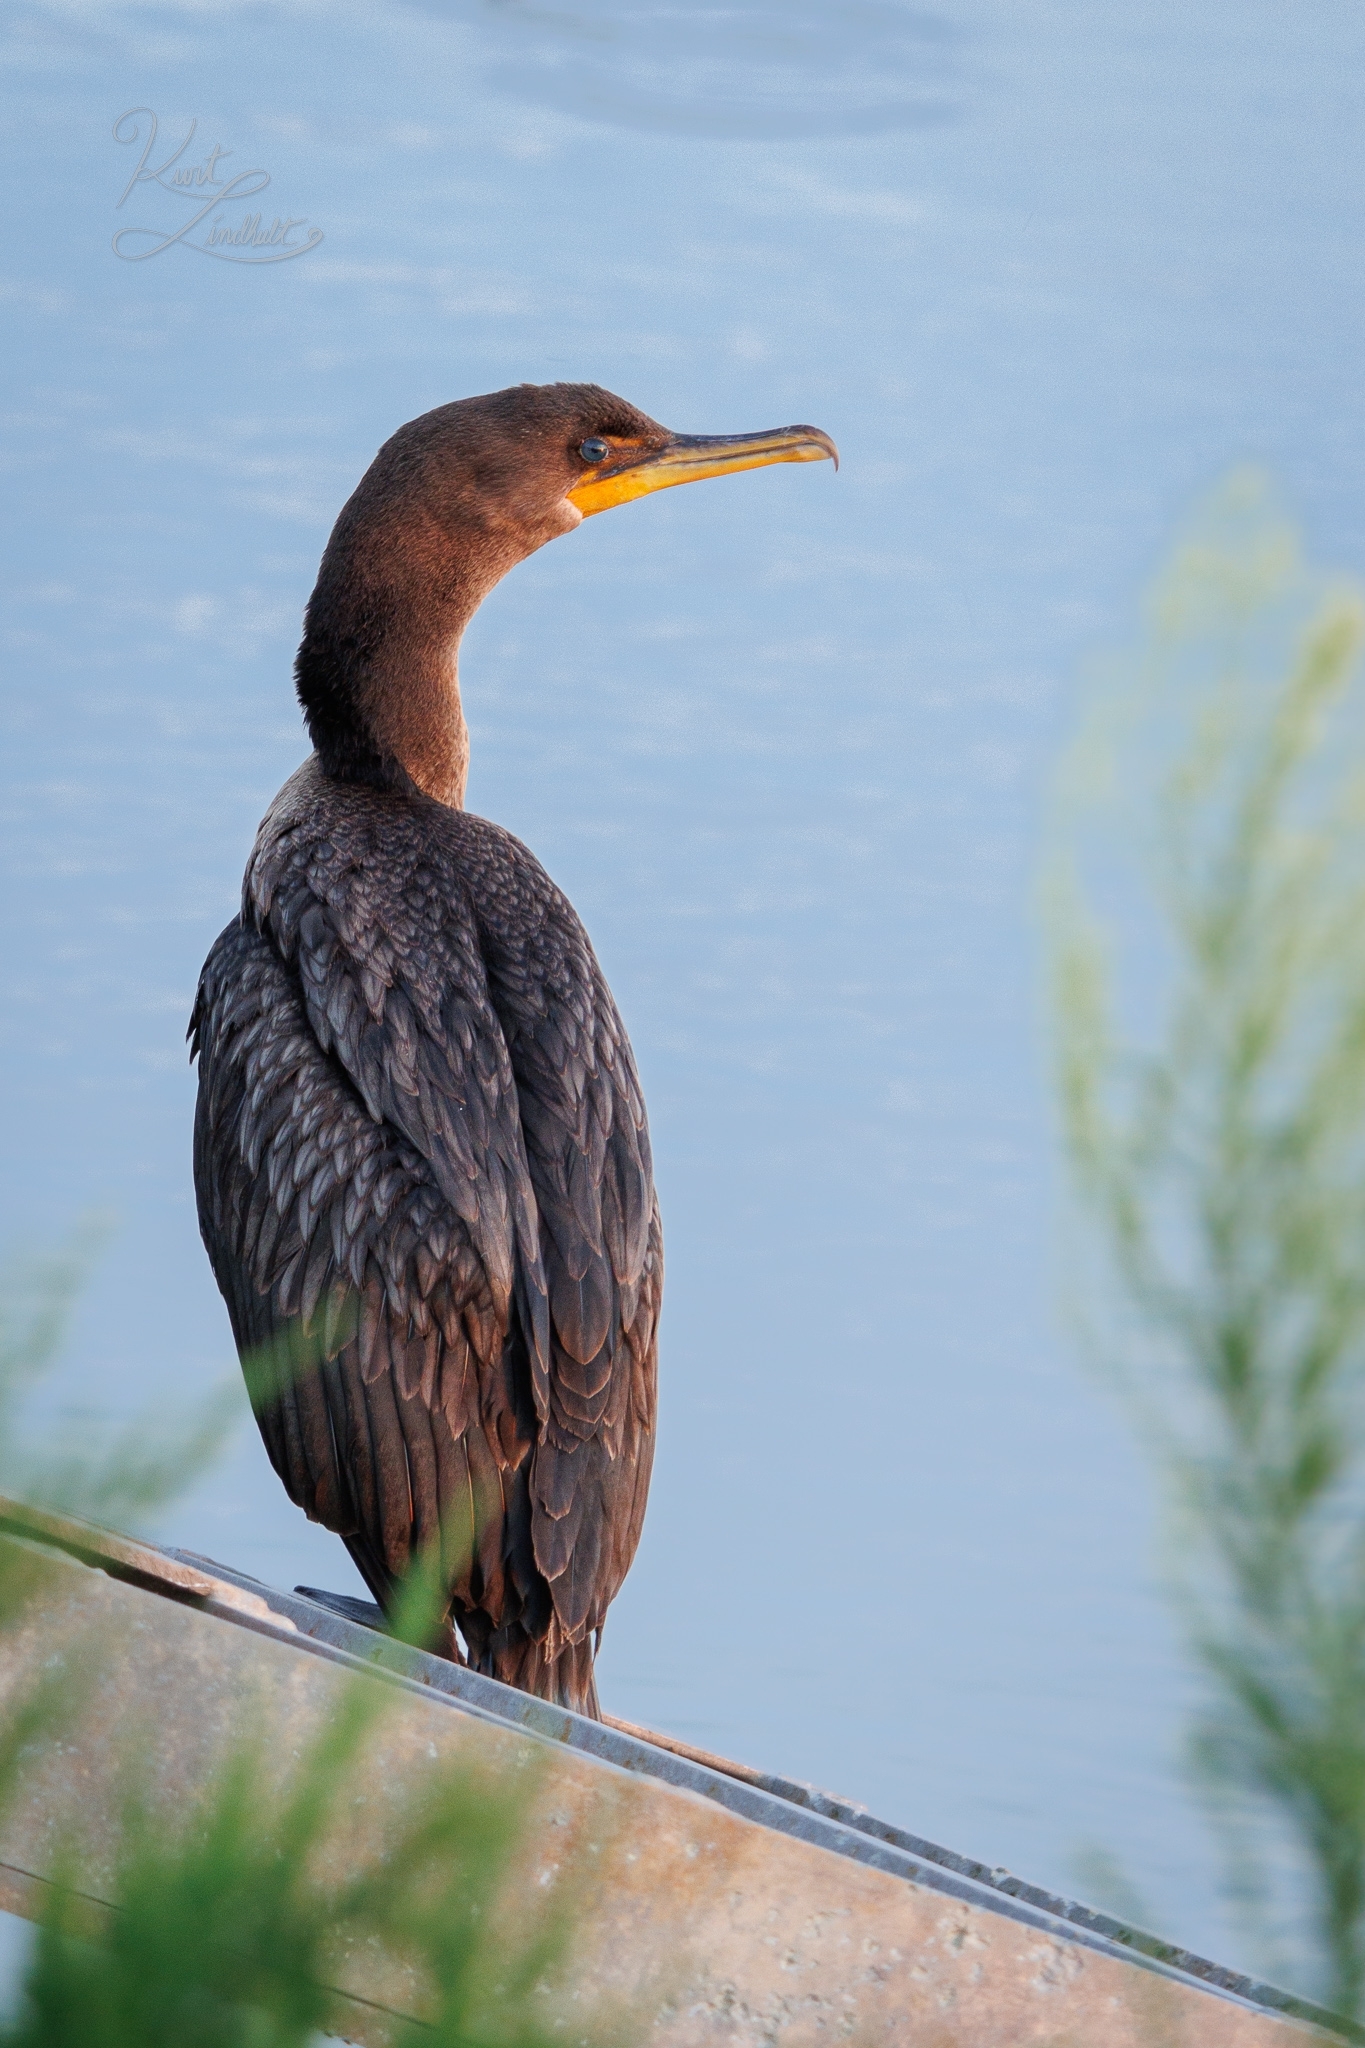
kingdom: Animalia
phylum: Chordata
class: Aves
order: Suliformes
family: Phalacrocoracidae
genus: Phalacrocorax
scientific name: Phalacrocorax auritus
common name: Double-crested cormorant
